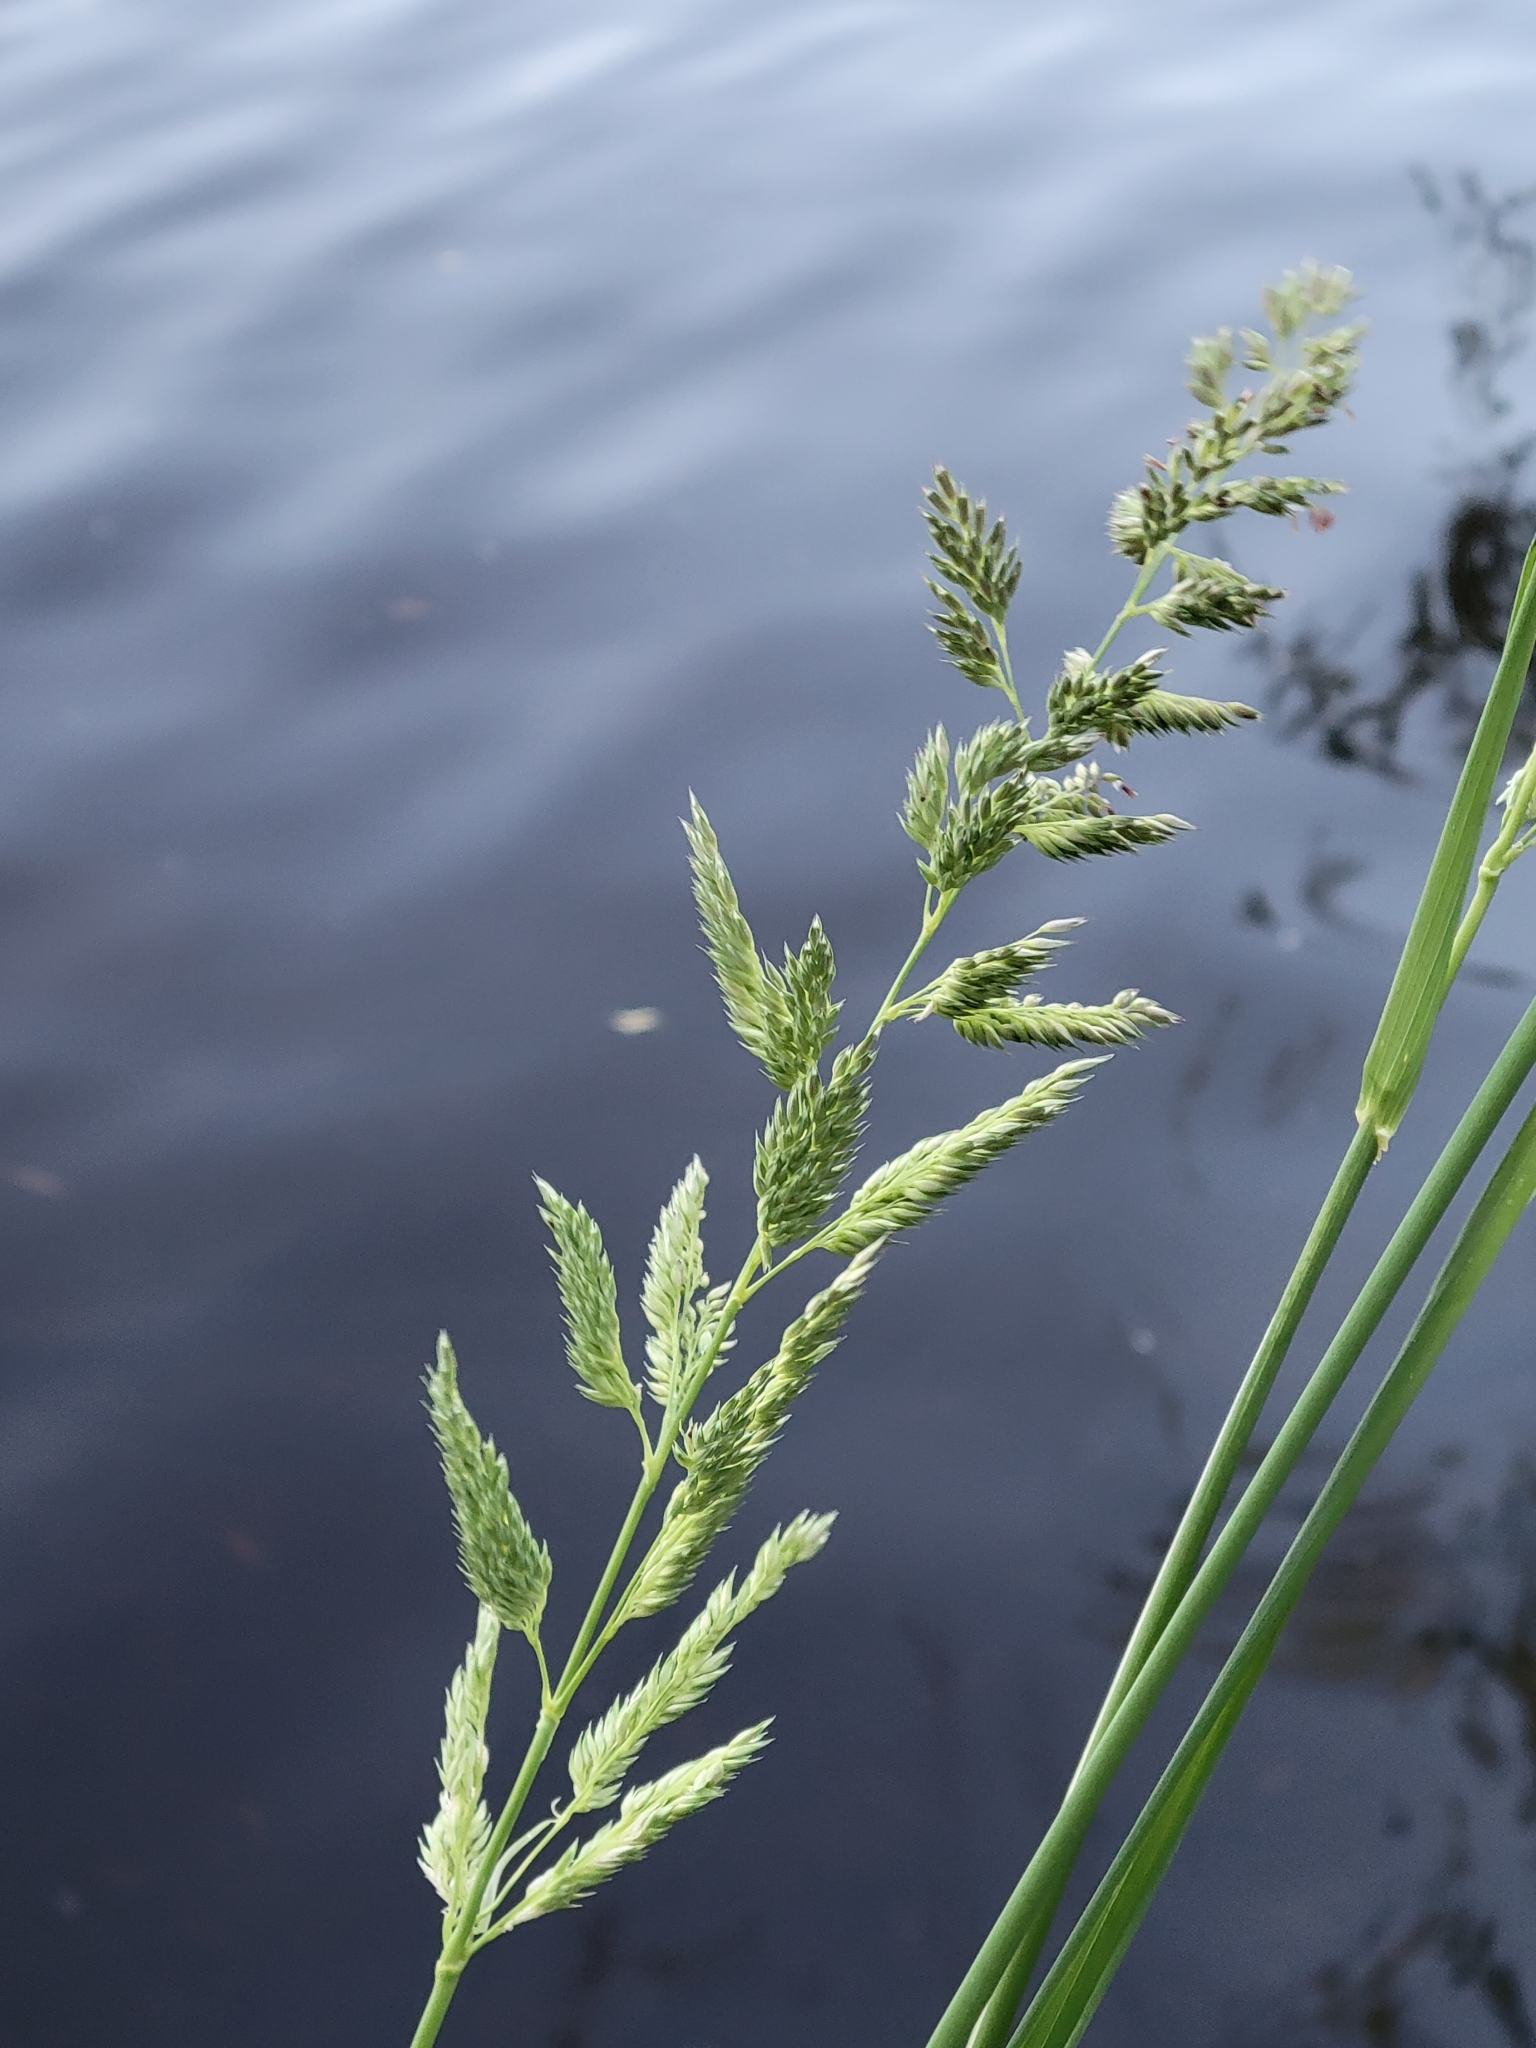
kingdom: Plantae
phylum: Tracheophyta
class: Liliopsida
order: Poales
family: Poaceae
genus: Phalaris
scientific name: Phalaris arundinacea
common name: Reed canary-grass
